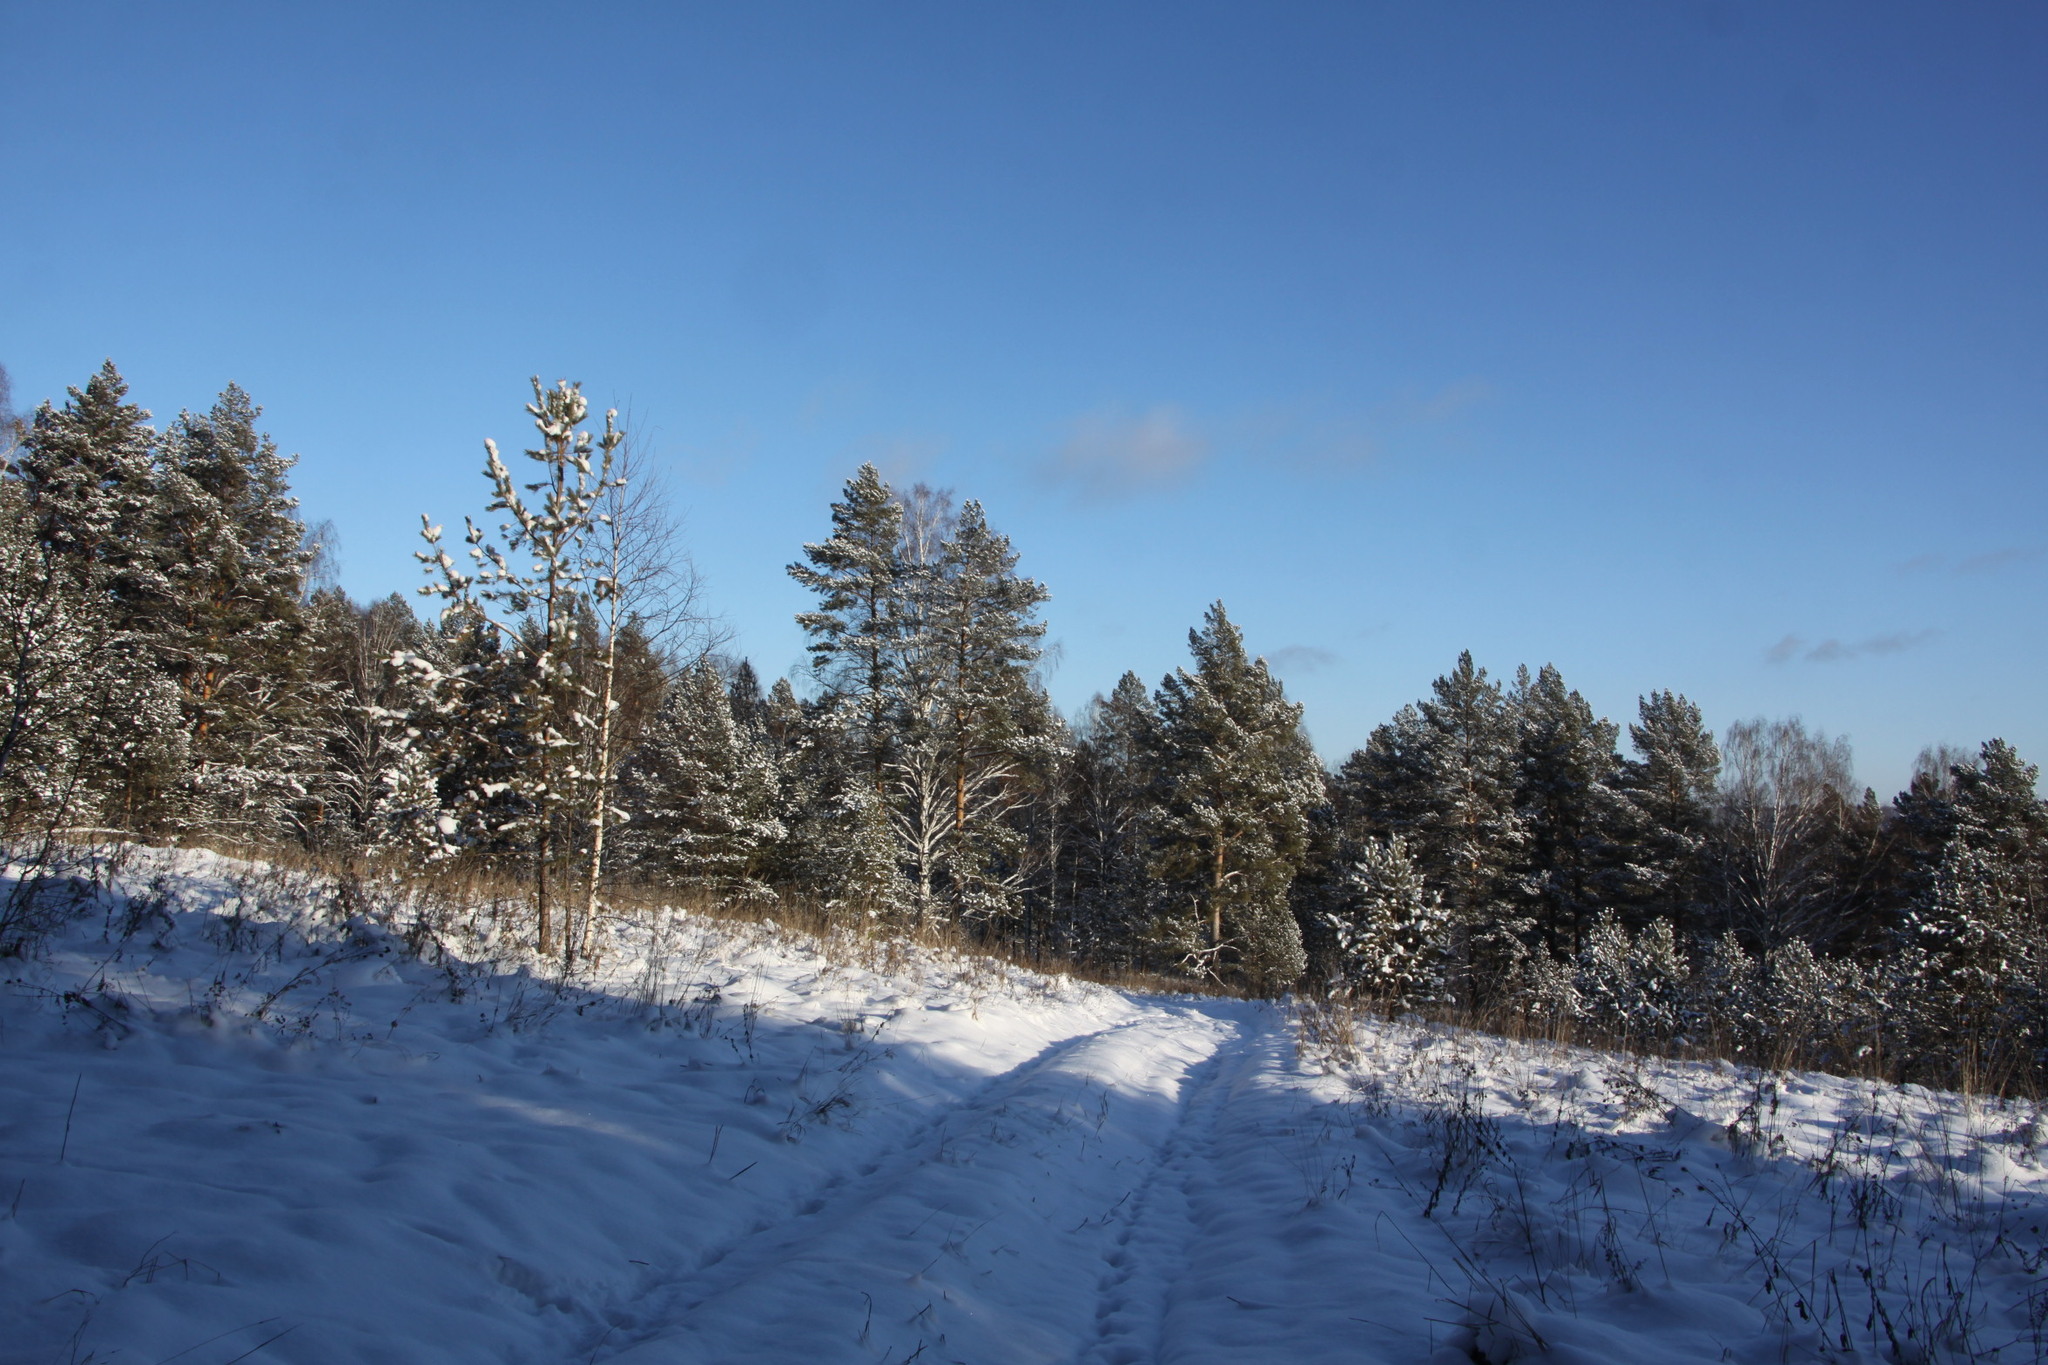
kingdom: Plantae
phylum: Tracheophyta
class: Pinopsida
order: Pinales
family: Pinaceae
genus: Pinus
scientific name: Pinus sylvestris
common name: Scots pine
